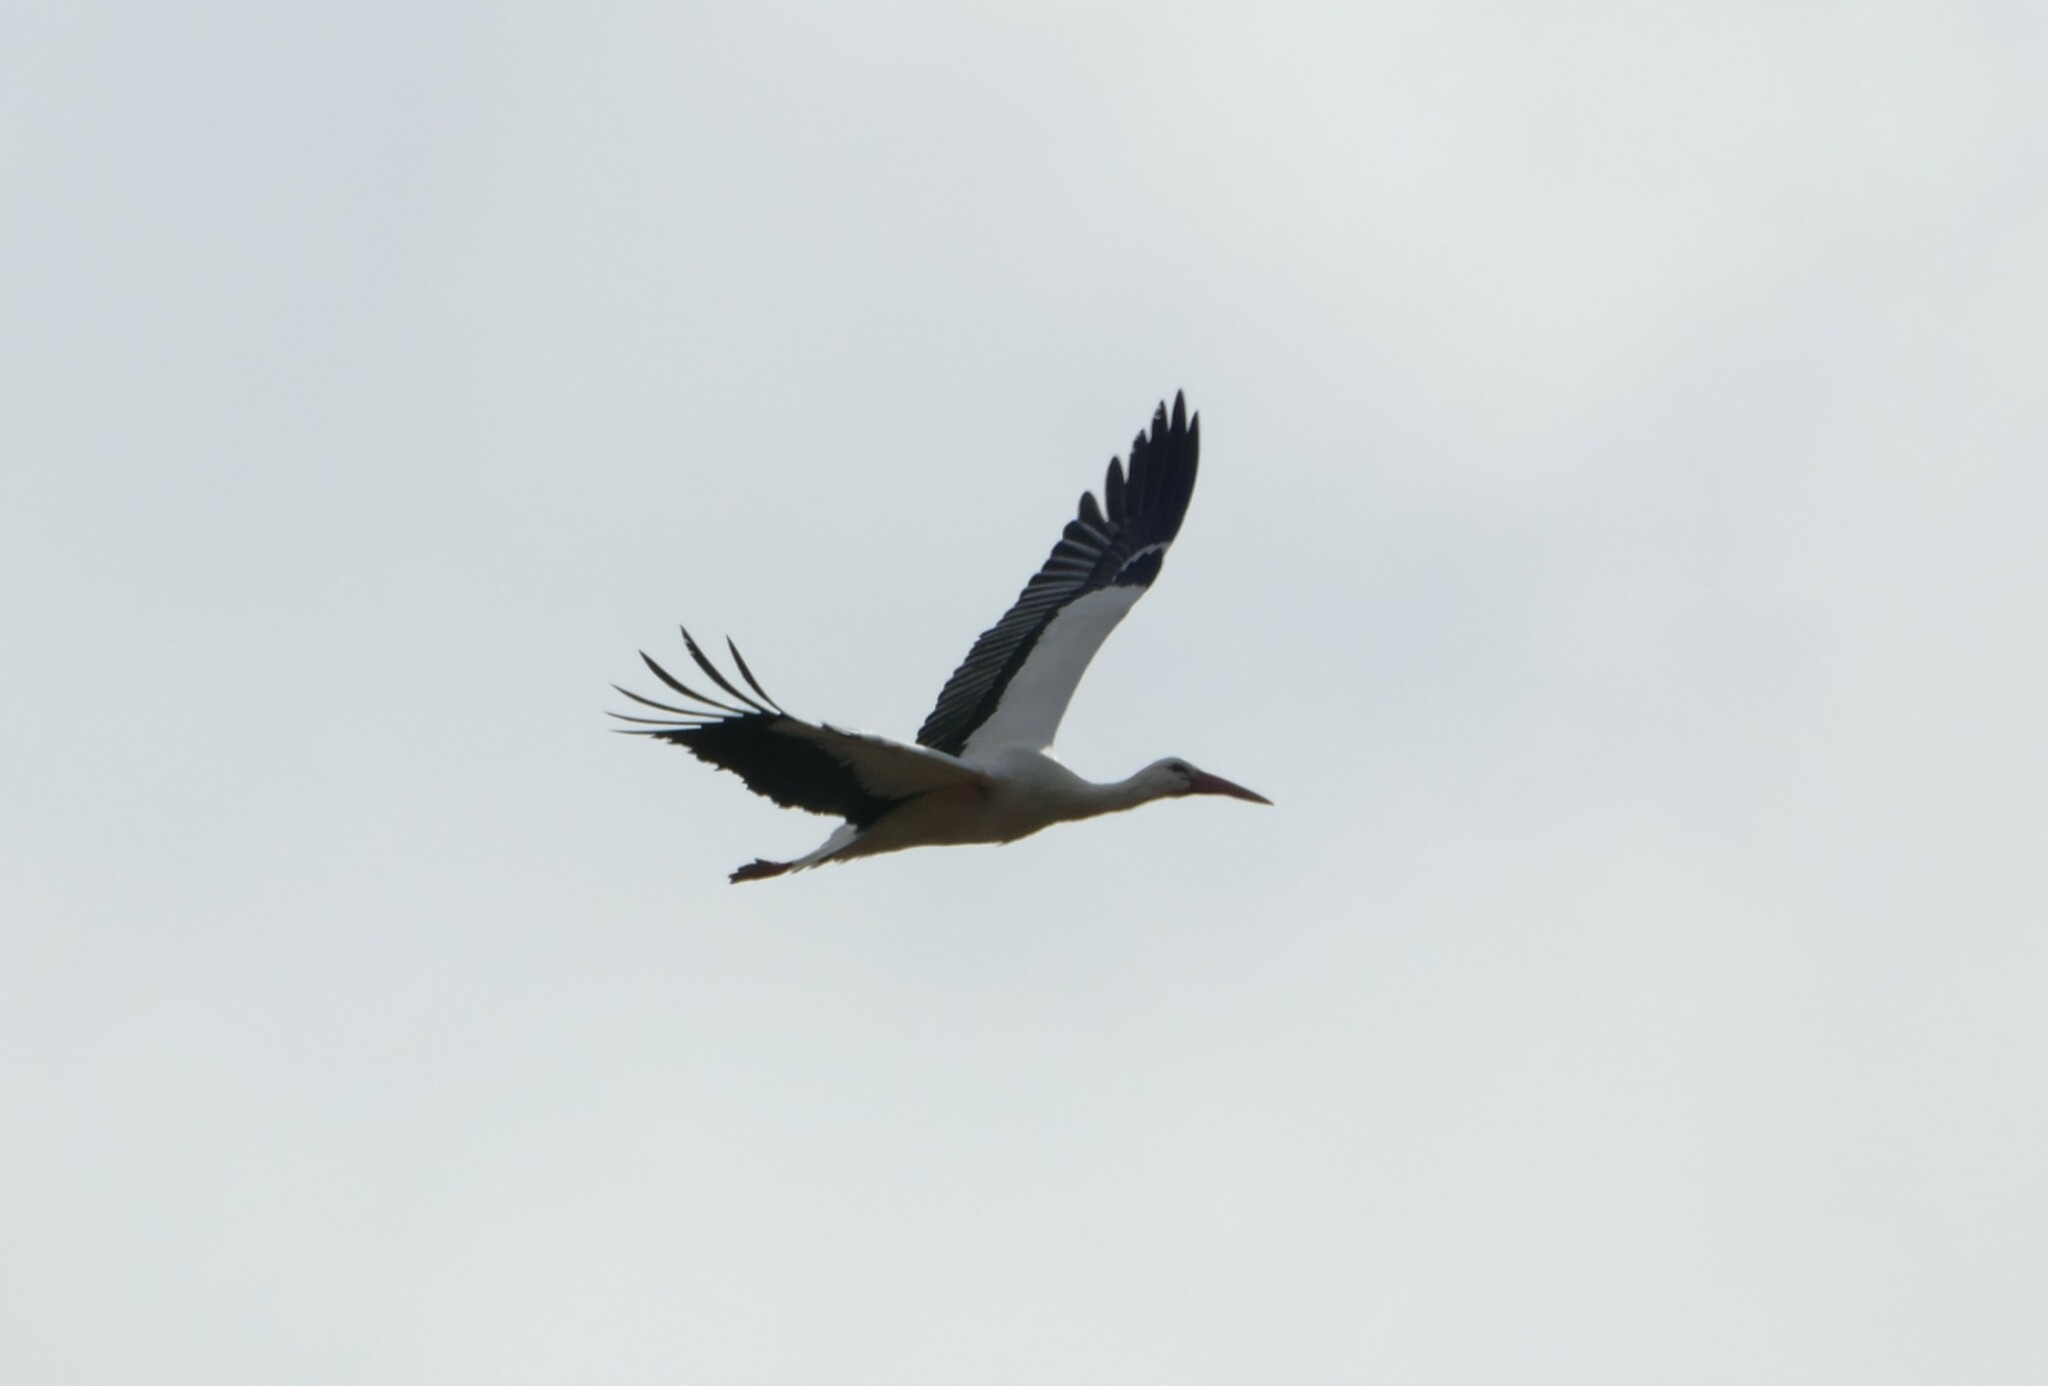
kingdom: Animalia
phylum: Chordata
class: Aves
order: Ciconiiformes
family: Ciconiidae
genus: Ciconia
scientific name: Ciconia ciconia
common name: White stork
